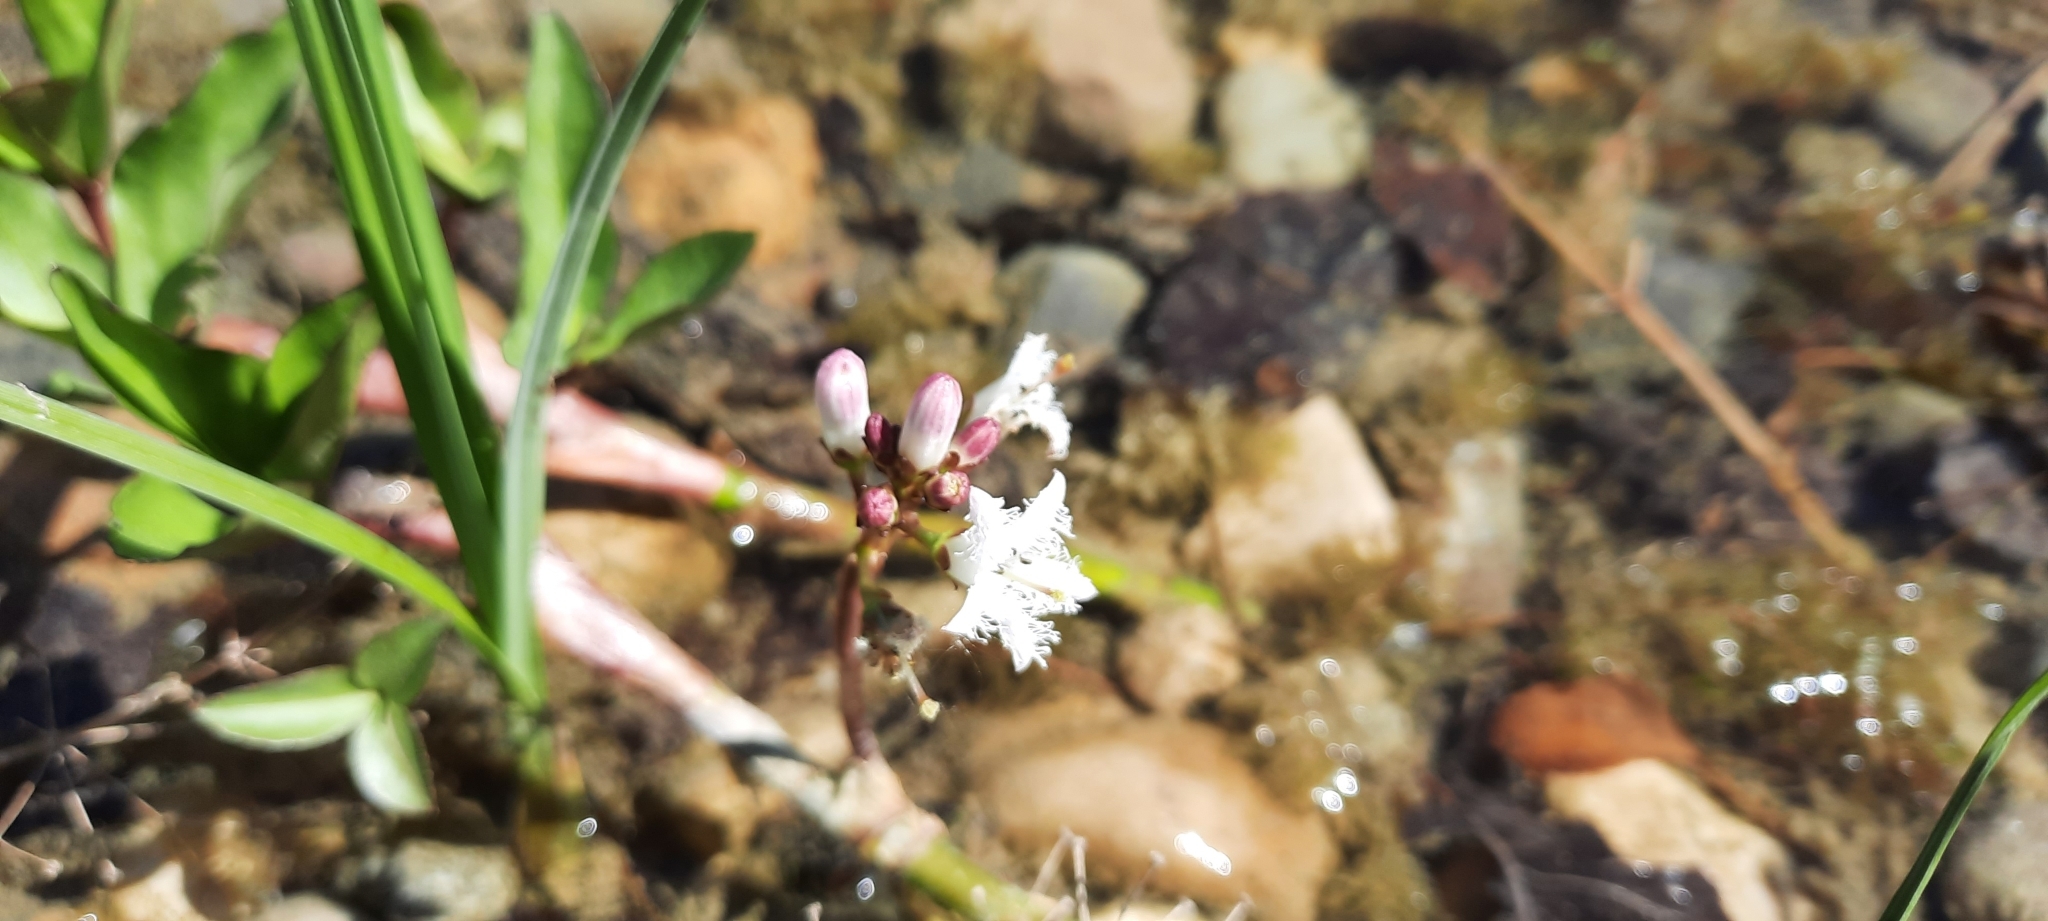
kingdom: Plantae
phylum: Tracheophyta
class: Magnoliopsida
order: Asterales
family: Menyanthaceae
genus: Menyanthes
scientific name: Menyanthes trifoliata
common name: Bogbean
